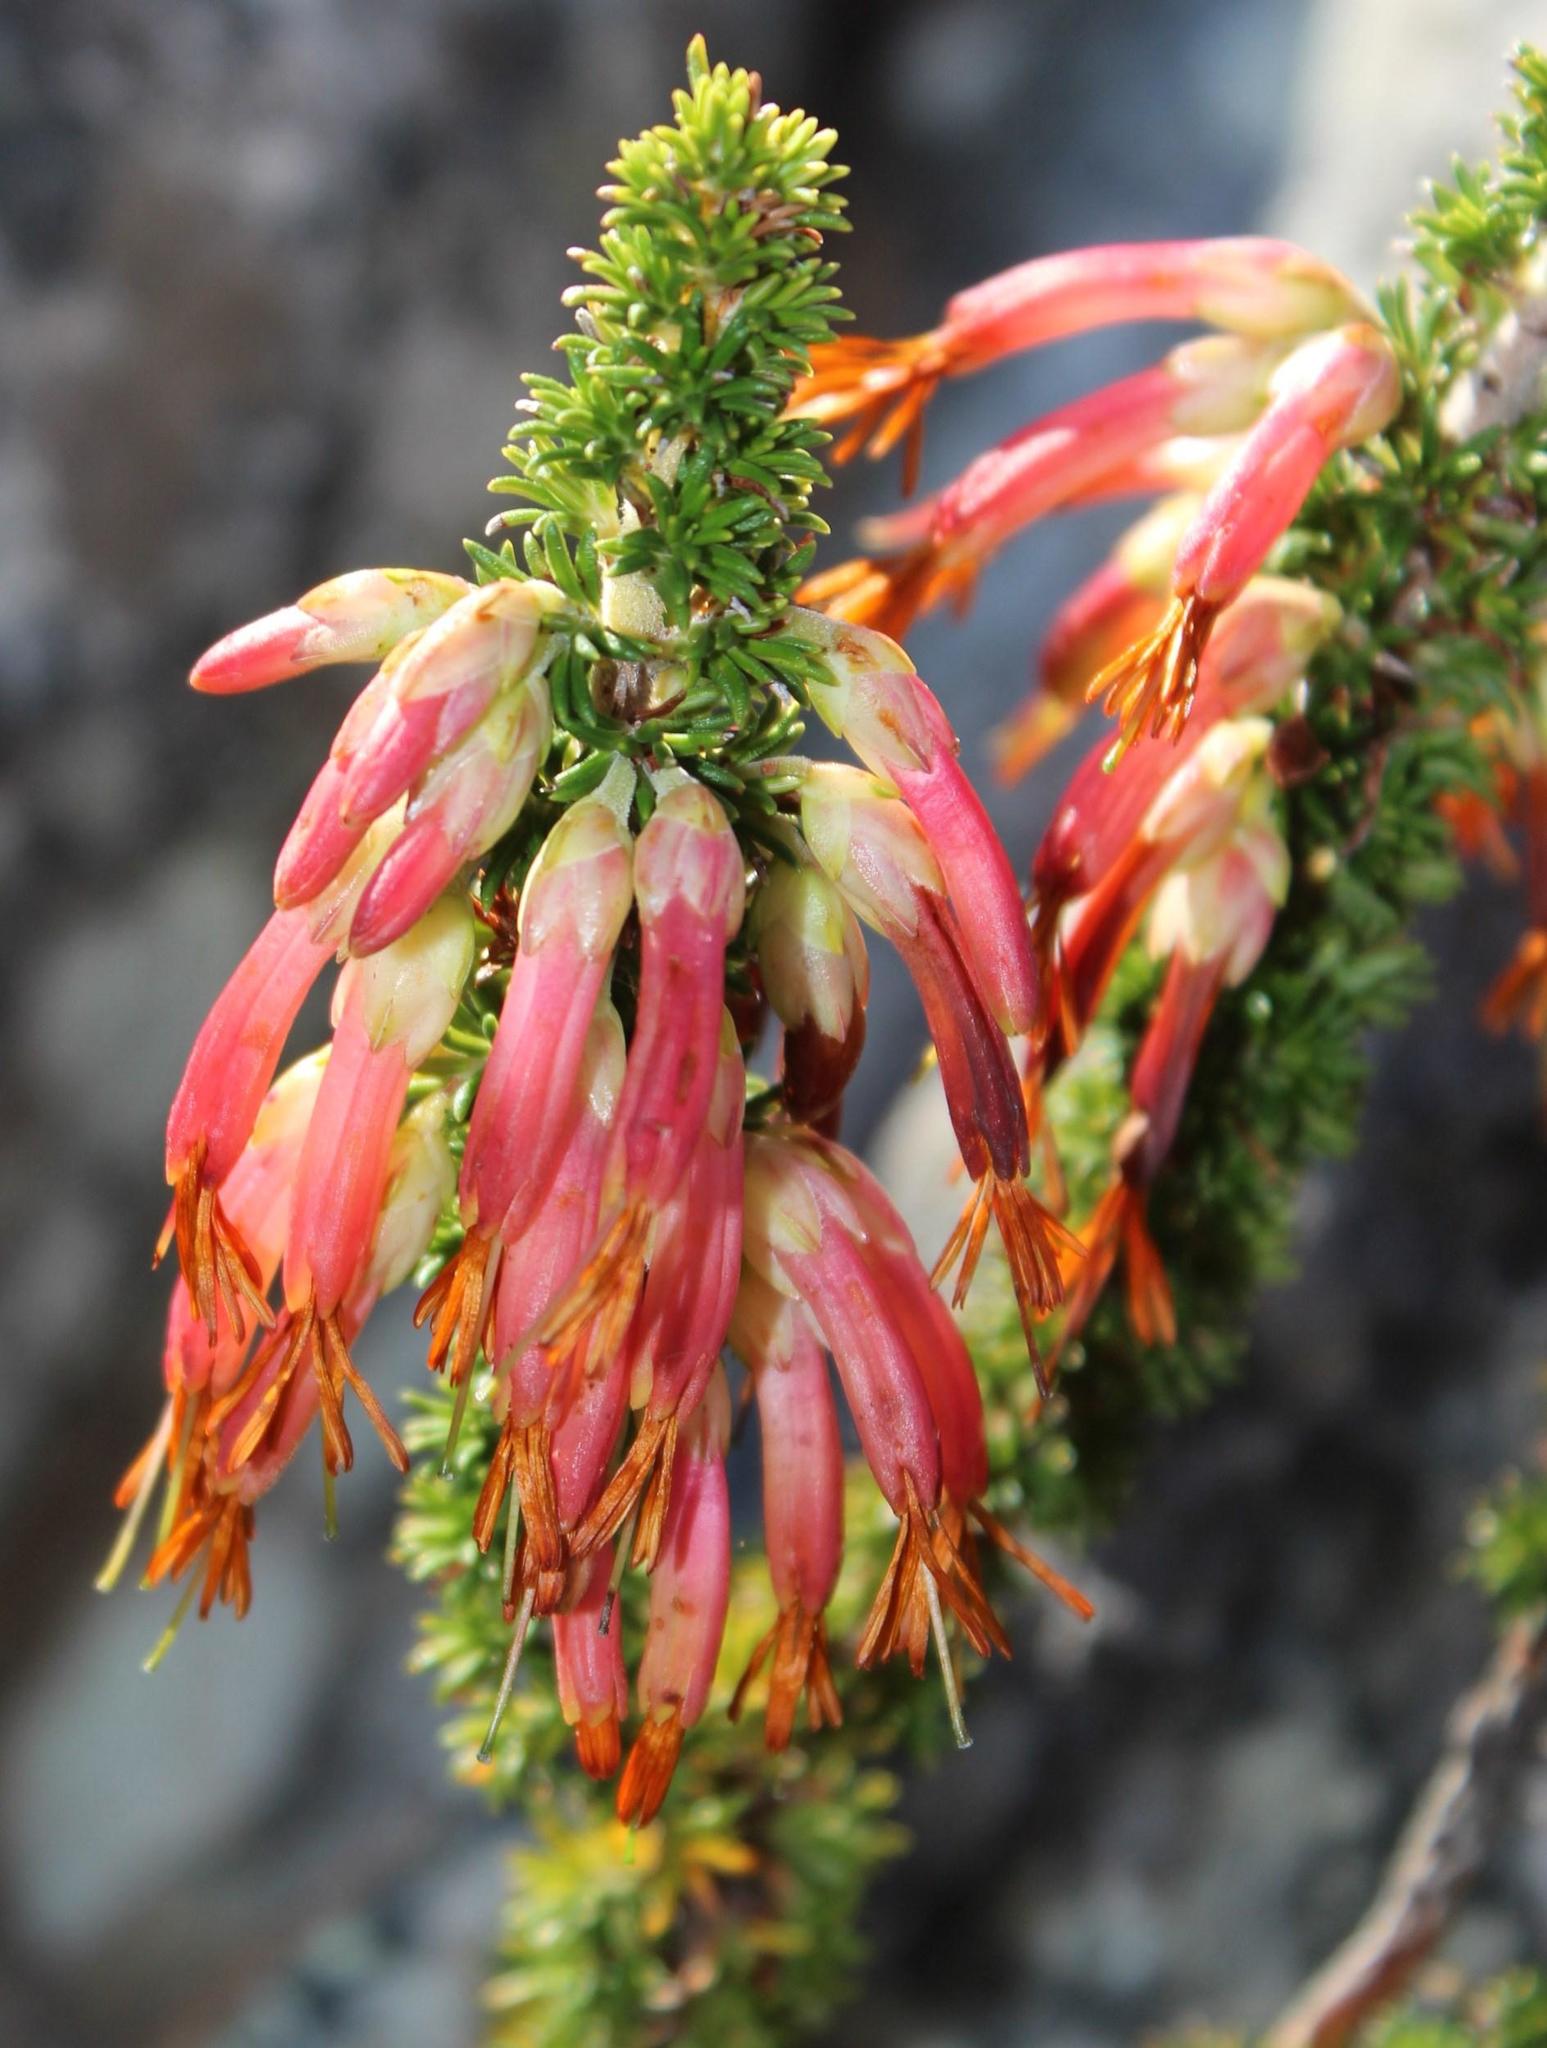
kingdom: Plantae
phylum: Tracheophyta
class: Magnoliopsida
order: Ericales
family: Ericaceae
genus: Erica
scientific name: Erica coccinea
